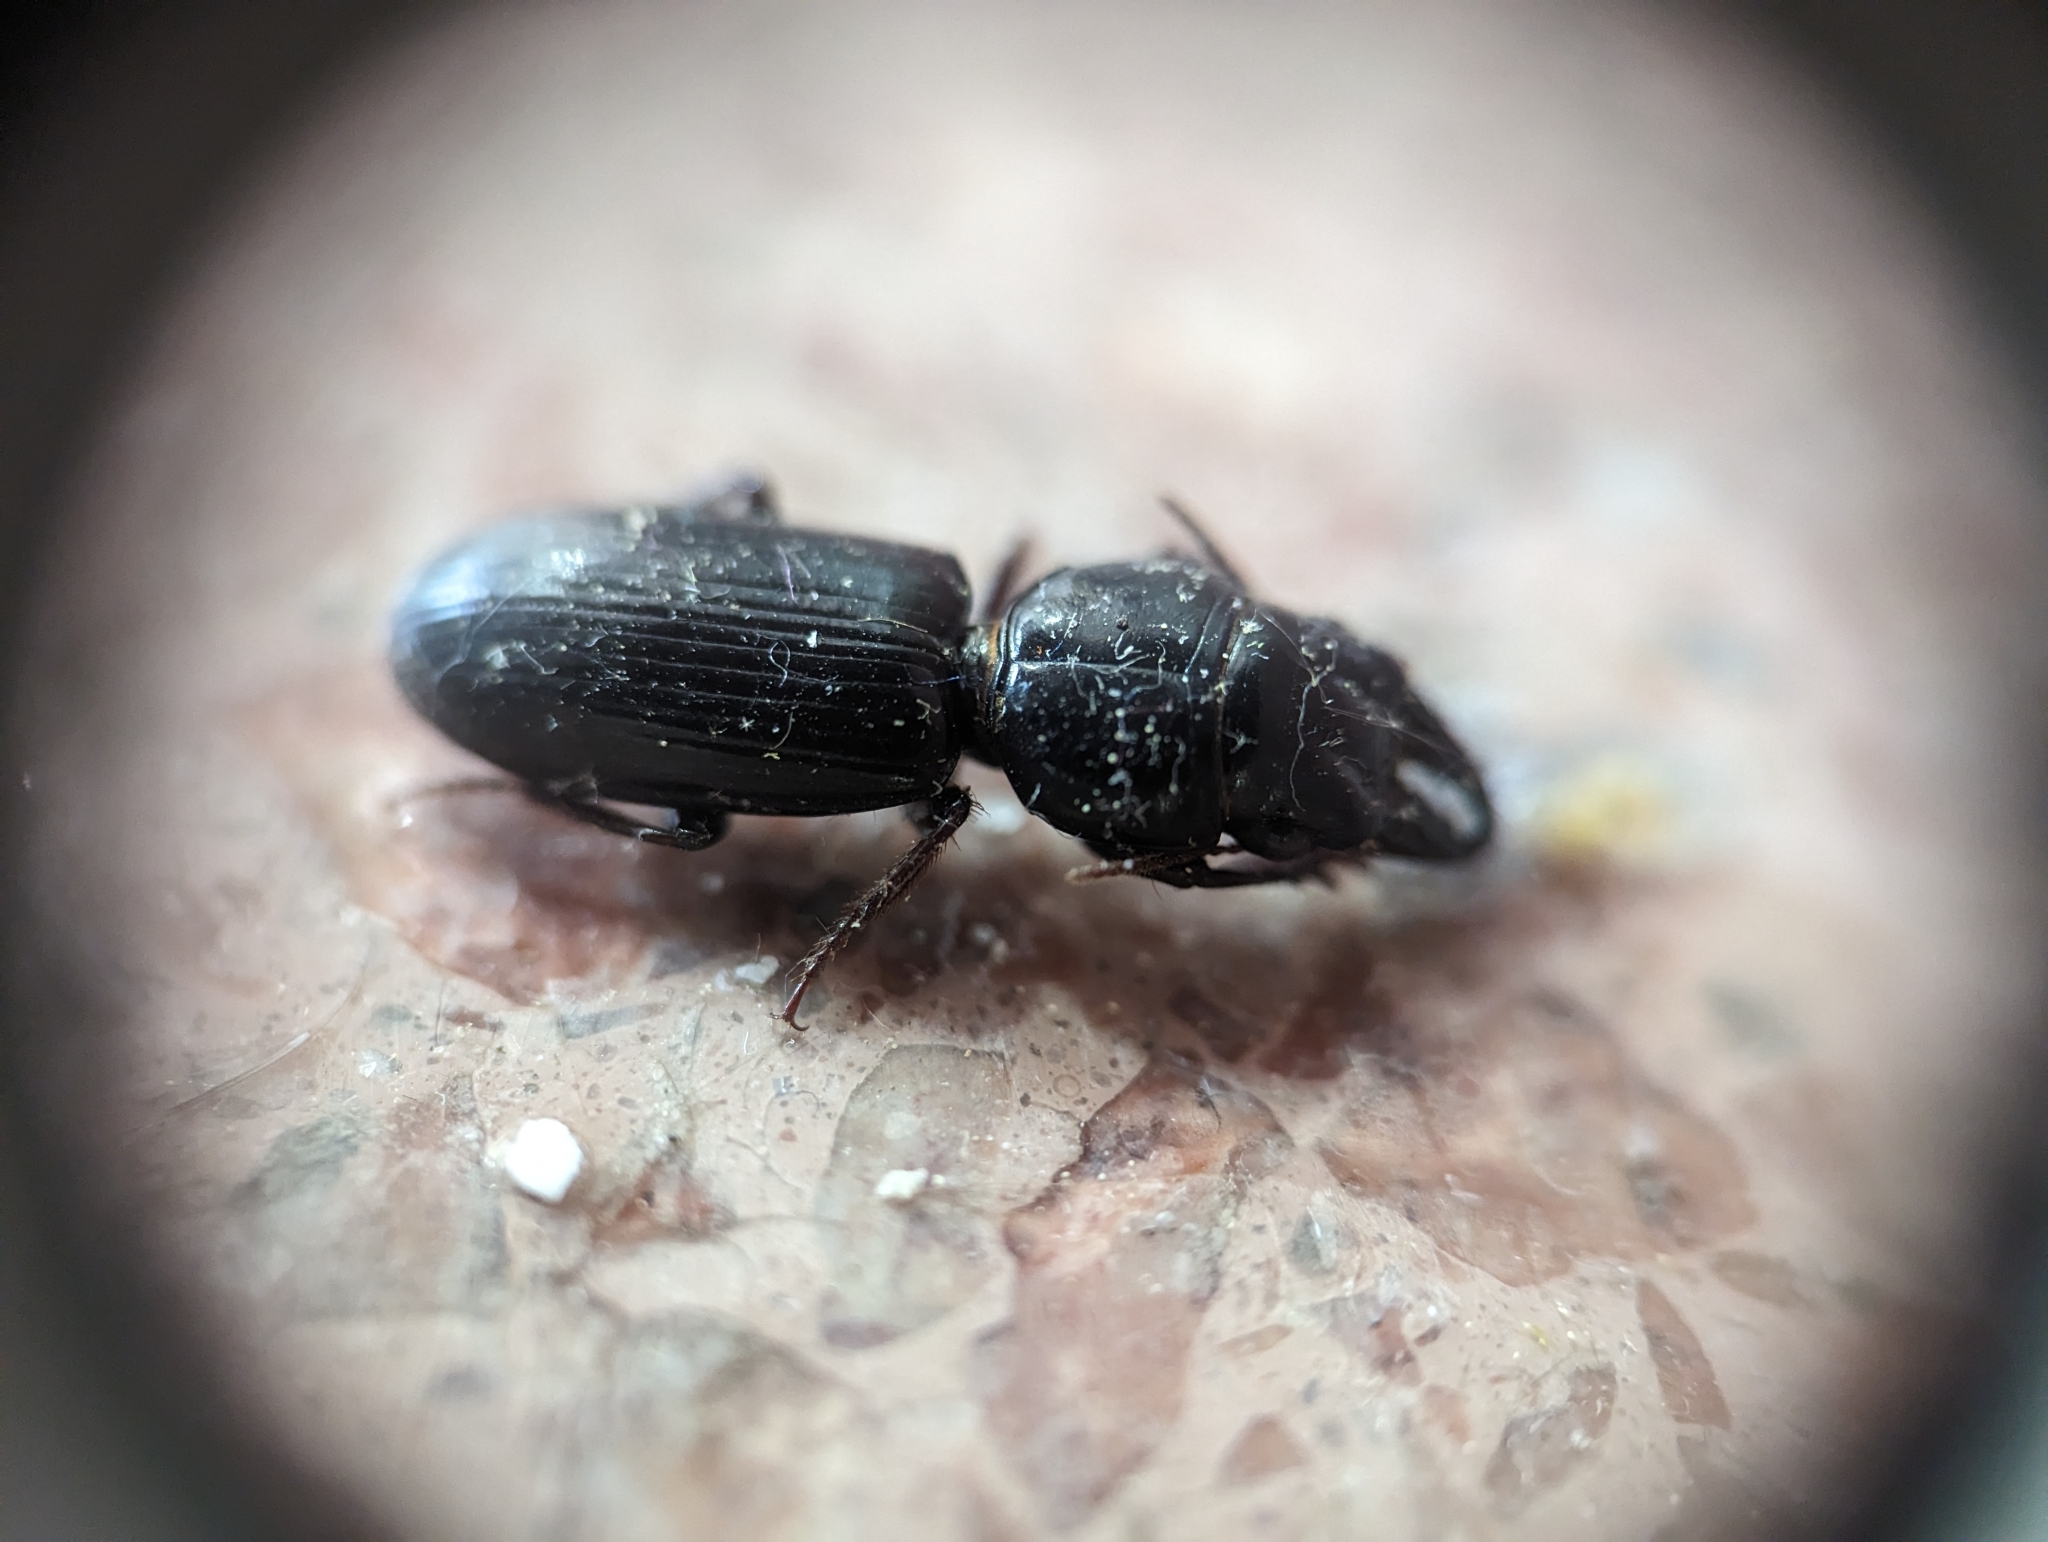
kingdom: Animalia
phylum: Arthropoda
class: Insecta
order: Coleoptera
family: Carabidae
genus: Scarites
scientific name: Scarites subterraneus
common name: Big-headed ground beetle
